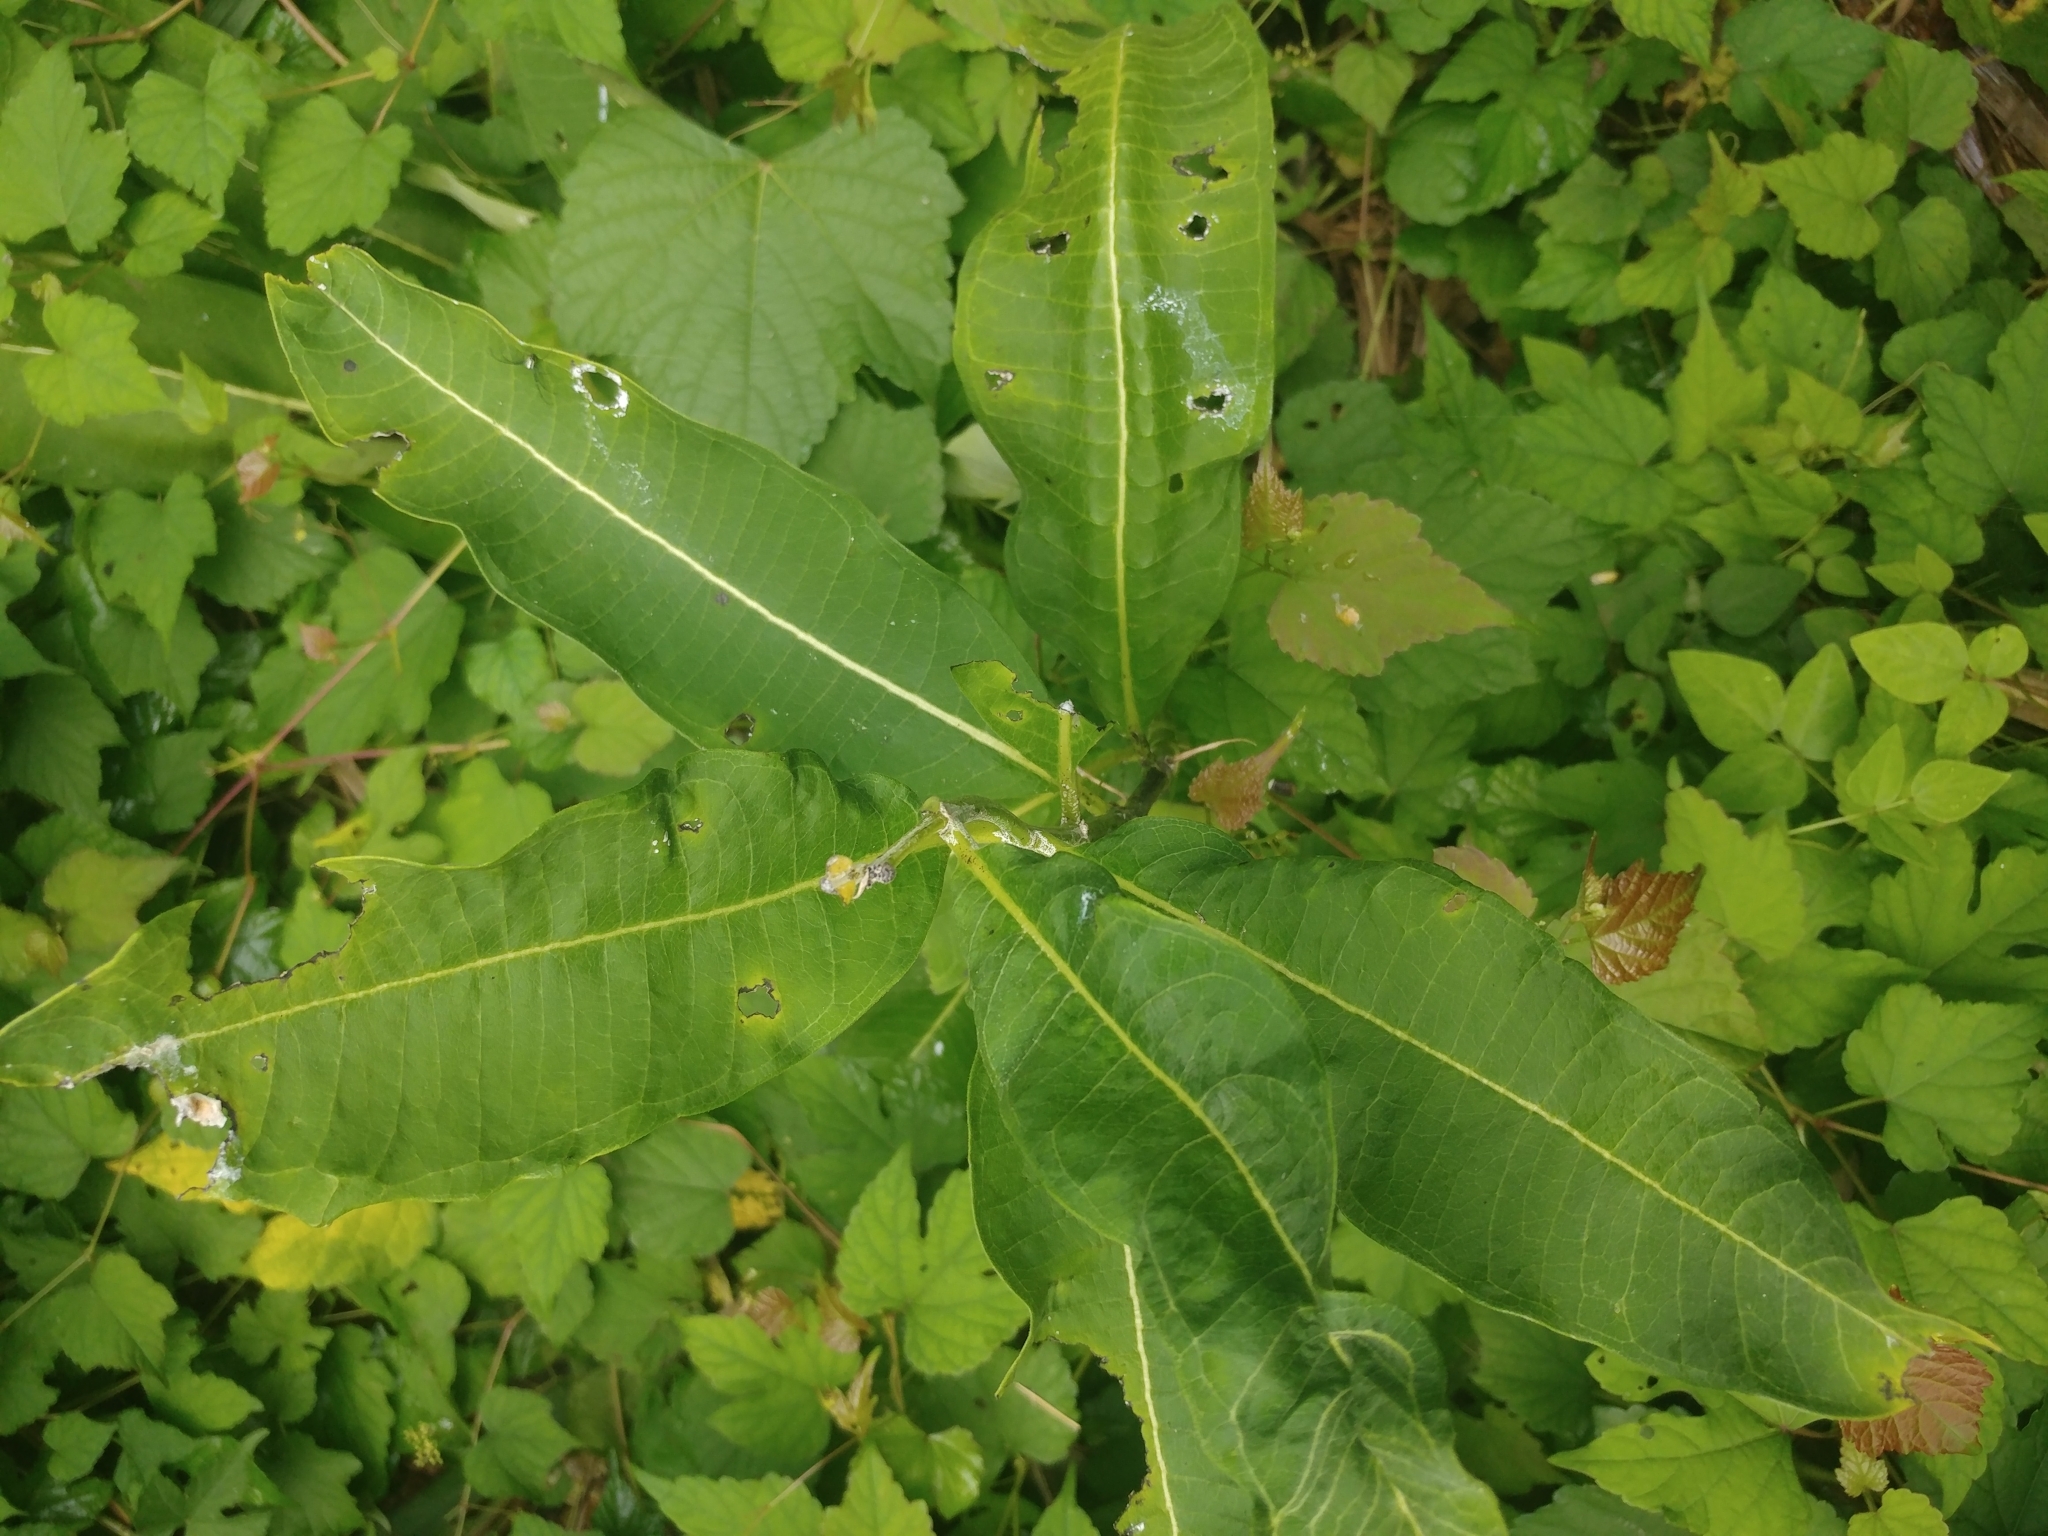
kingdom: Plantae
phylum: Tracheophyta
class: Magnoliopsida
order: Gentianales
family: Apocynaceae
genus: Asclepias
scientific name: Asclepias syriaca
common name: Common milkweed
